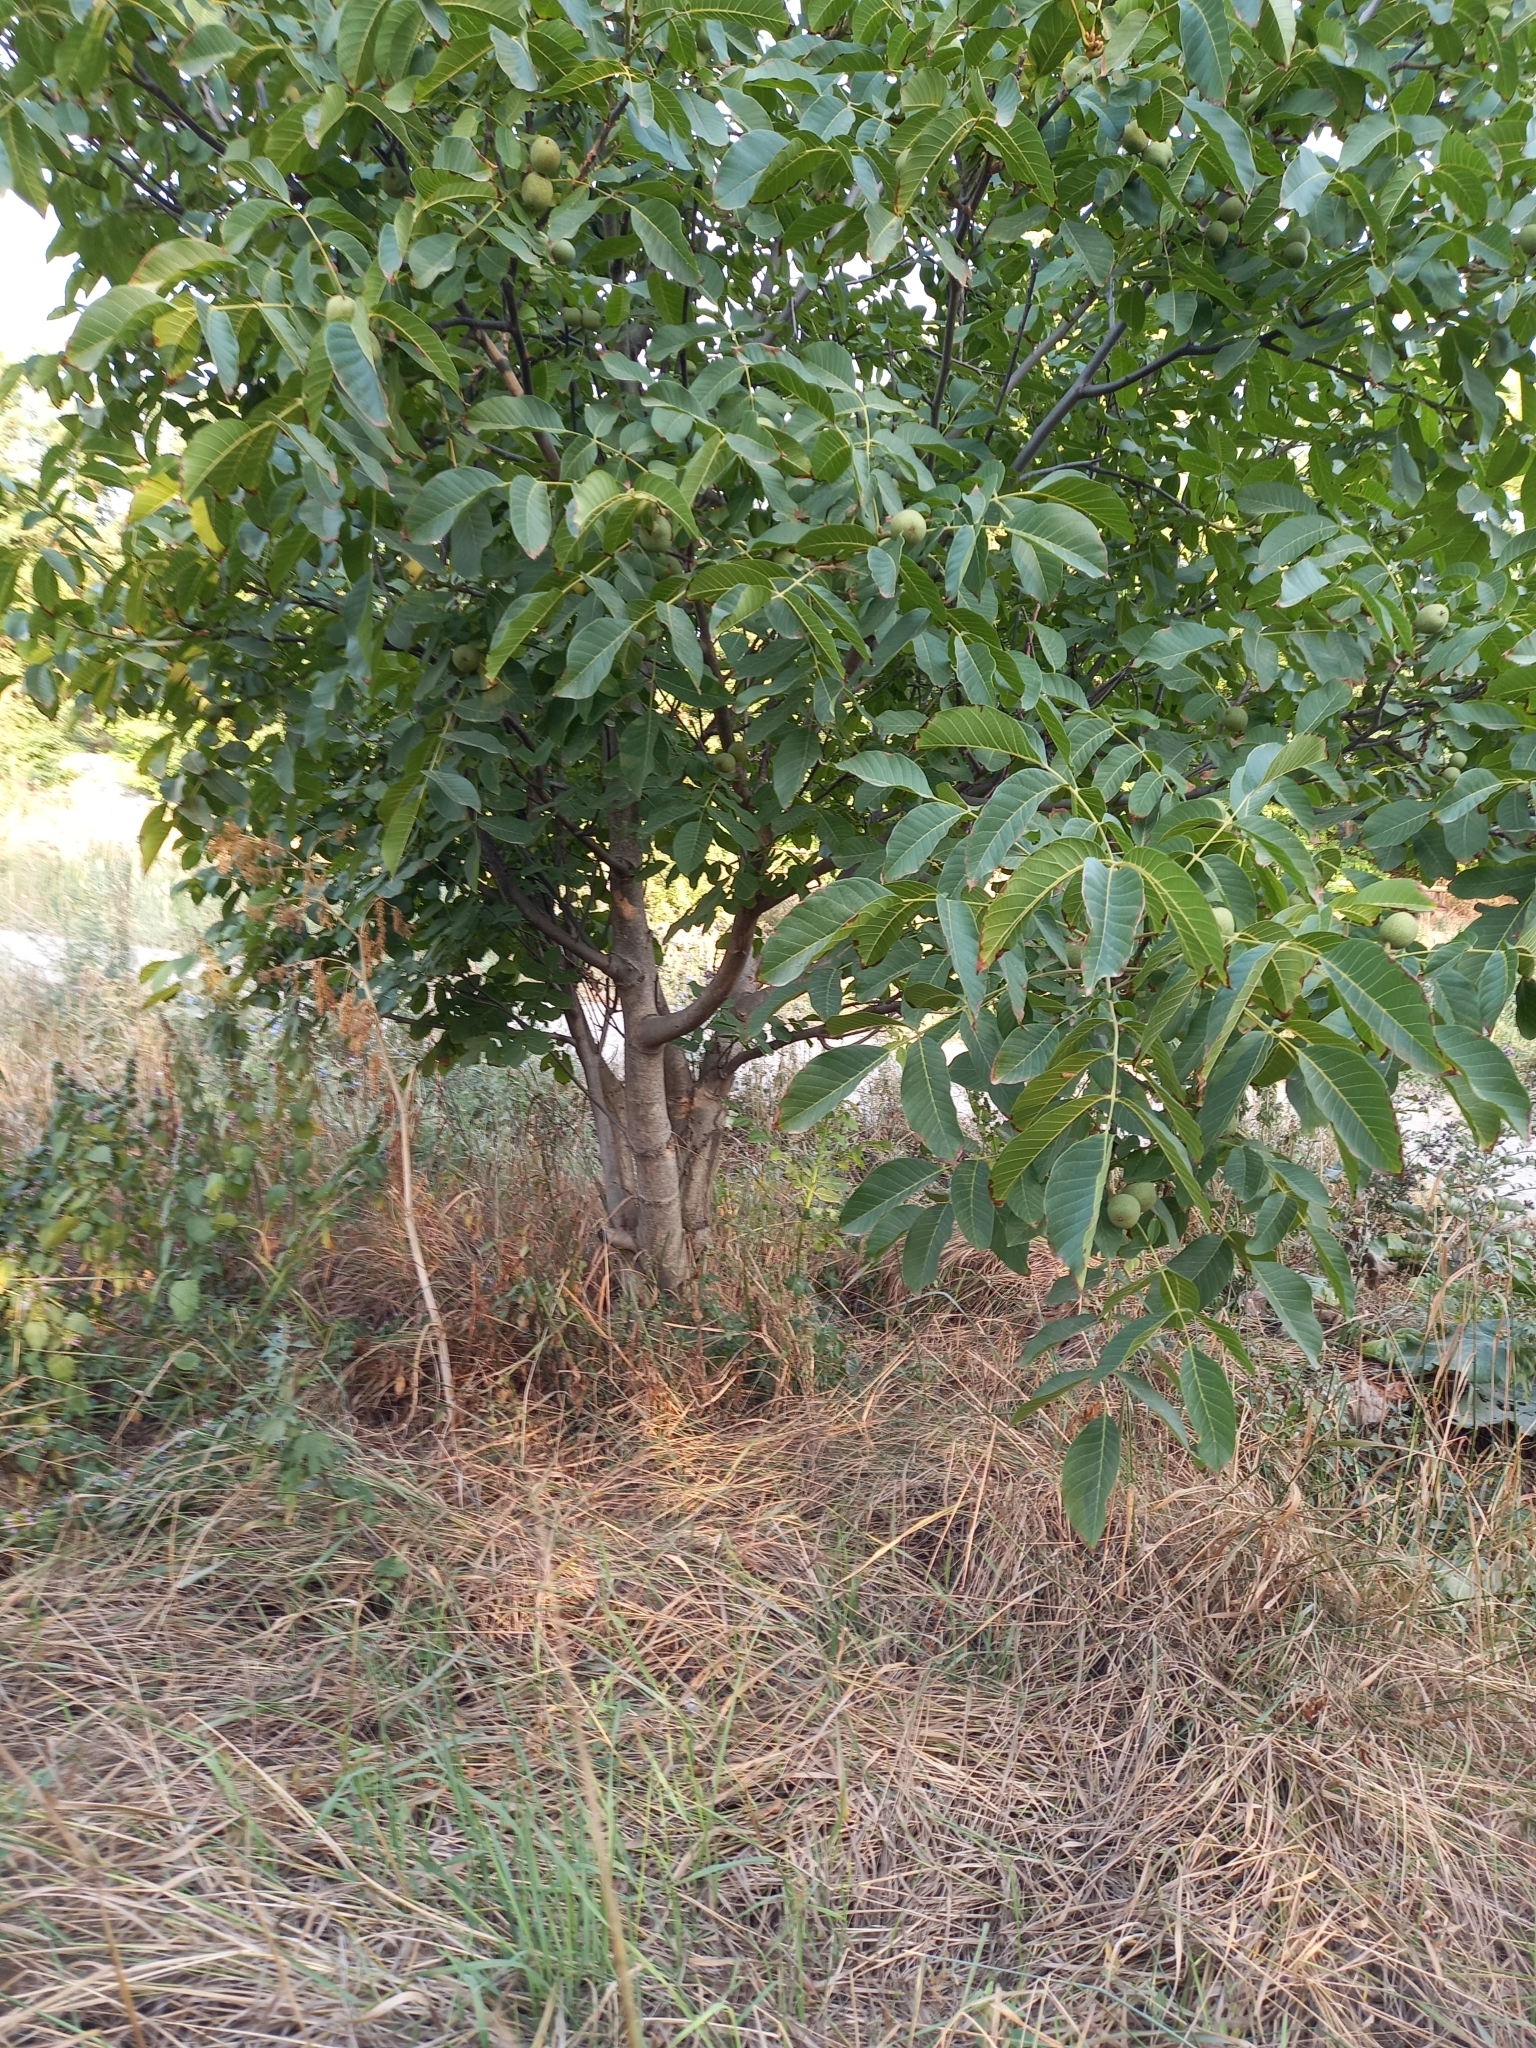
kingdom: Plantae
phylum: Tracheophyta
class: Magnoliopsida
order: Fagales
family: Juglandaceae
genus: Juglans
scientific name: Juglans regia
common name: Walnut
